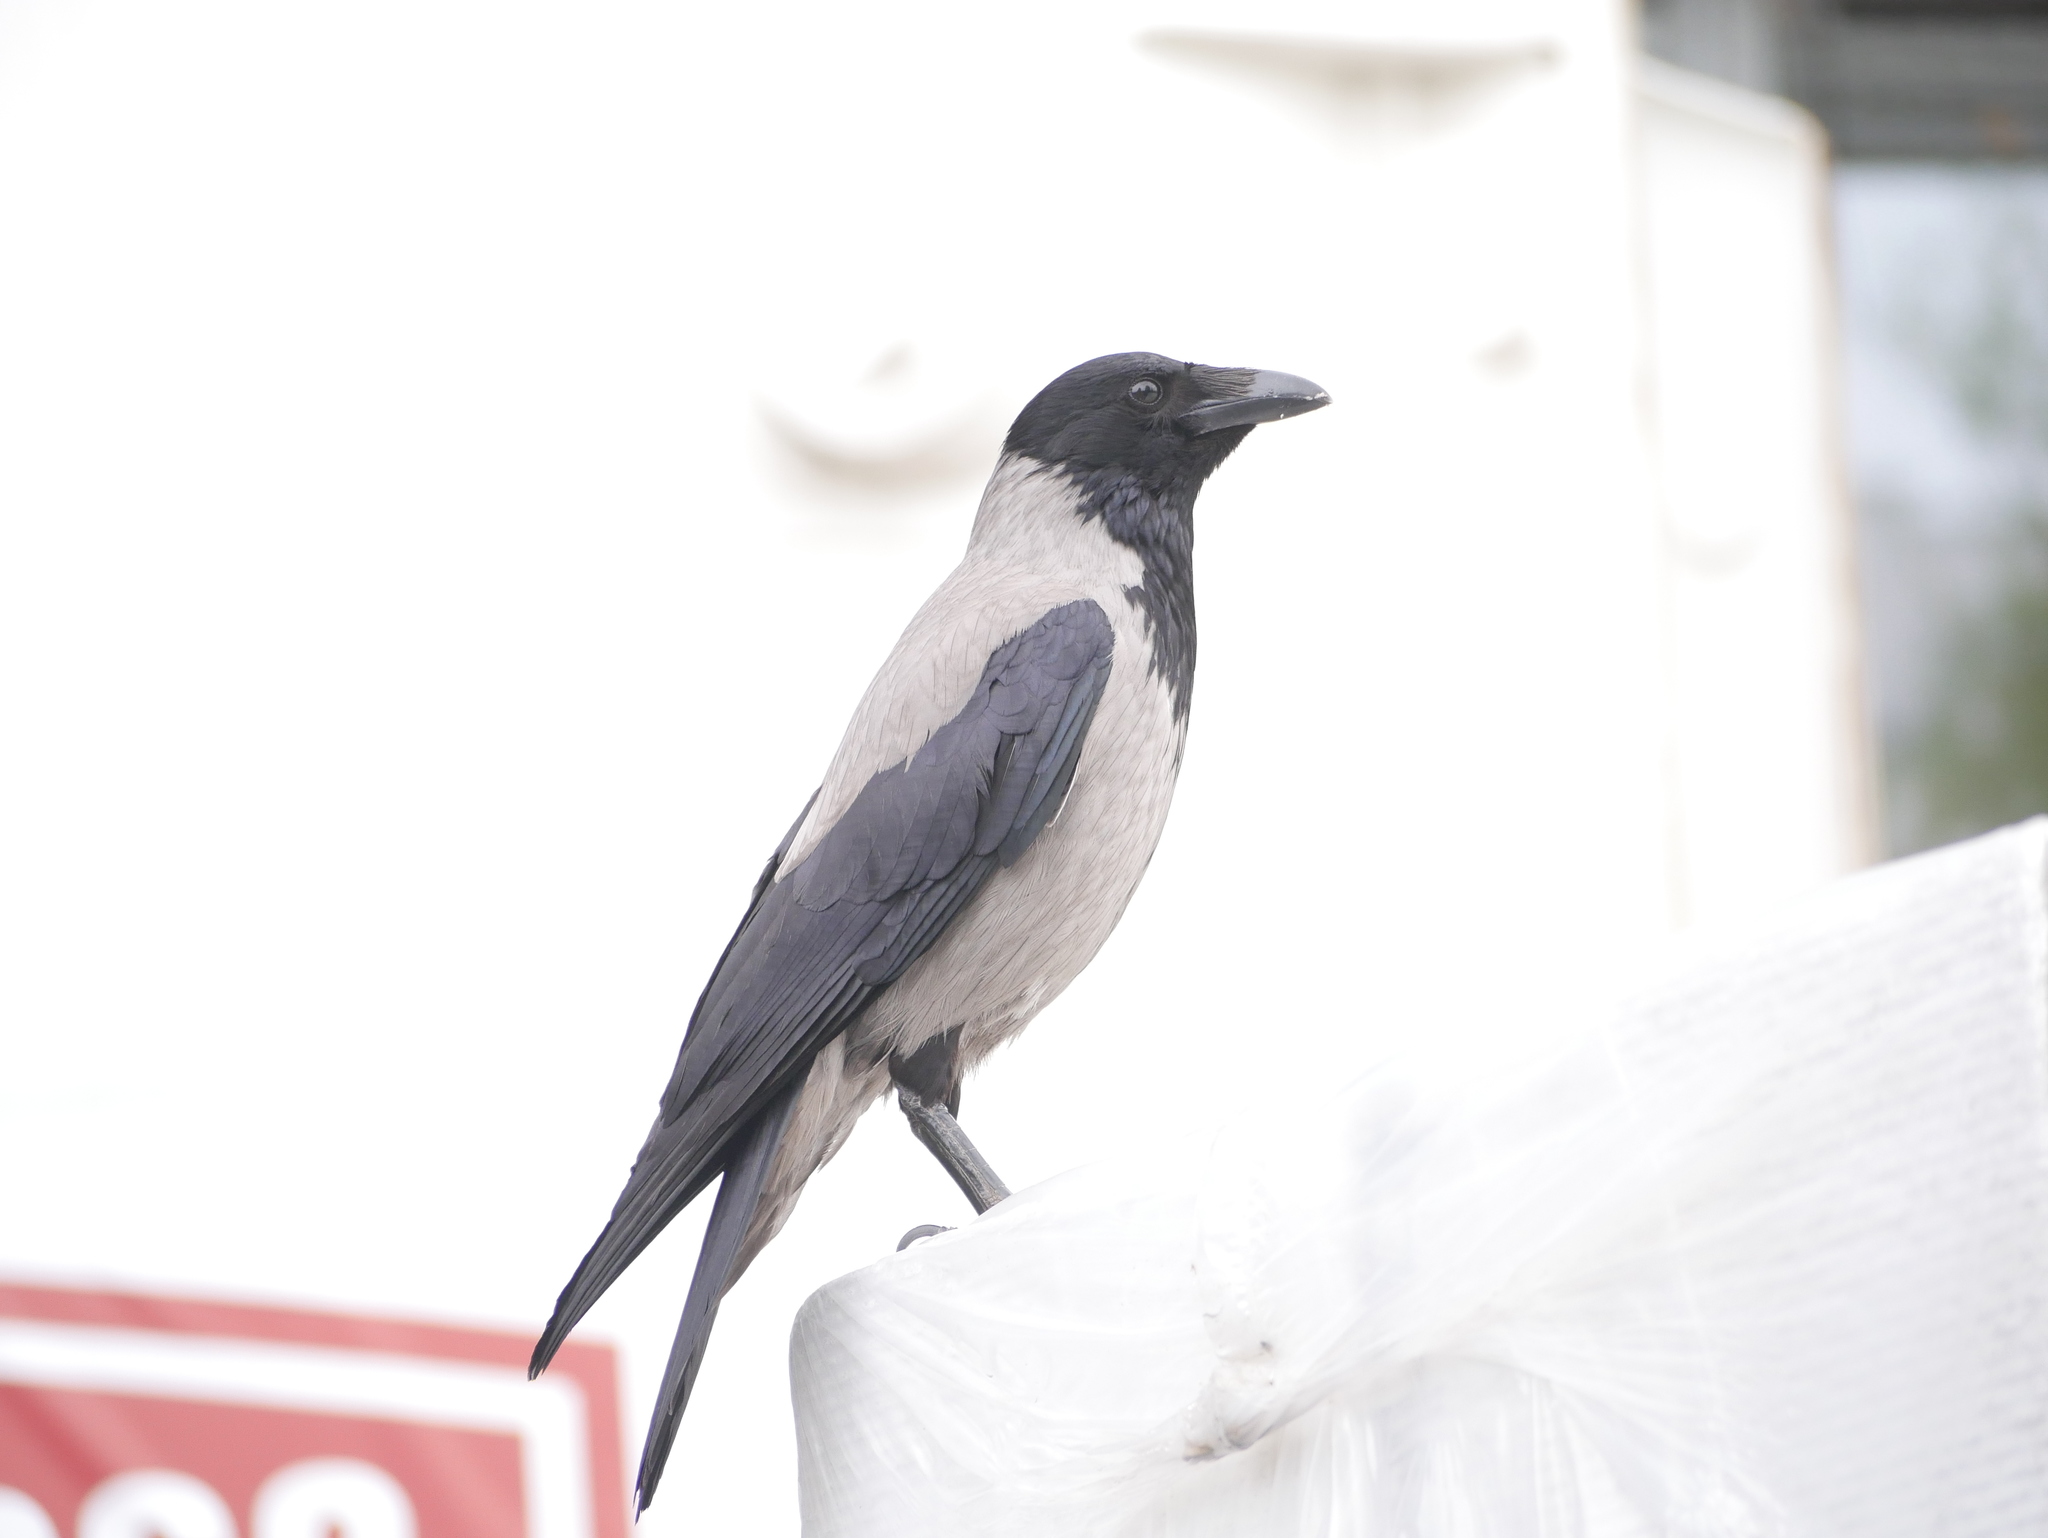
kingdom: Animalia
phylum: Chordata
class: Aves
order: Passeriformes
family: Corvidae
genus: Corvus
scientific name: Corvus cornix
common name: Hooded crow
